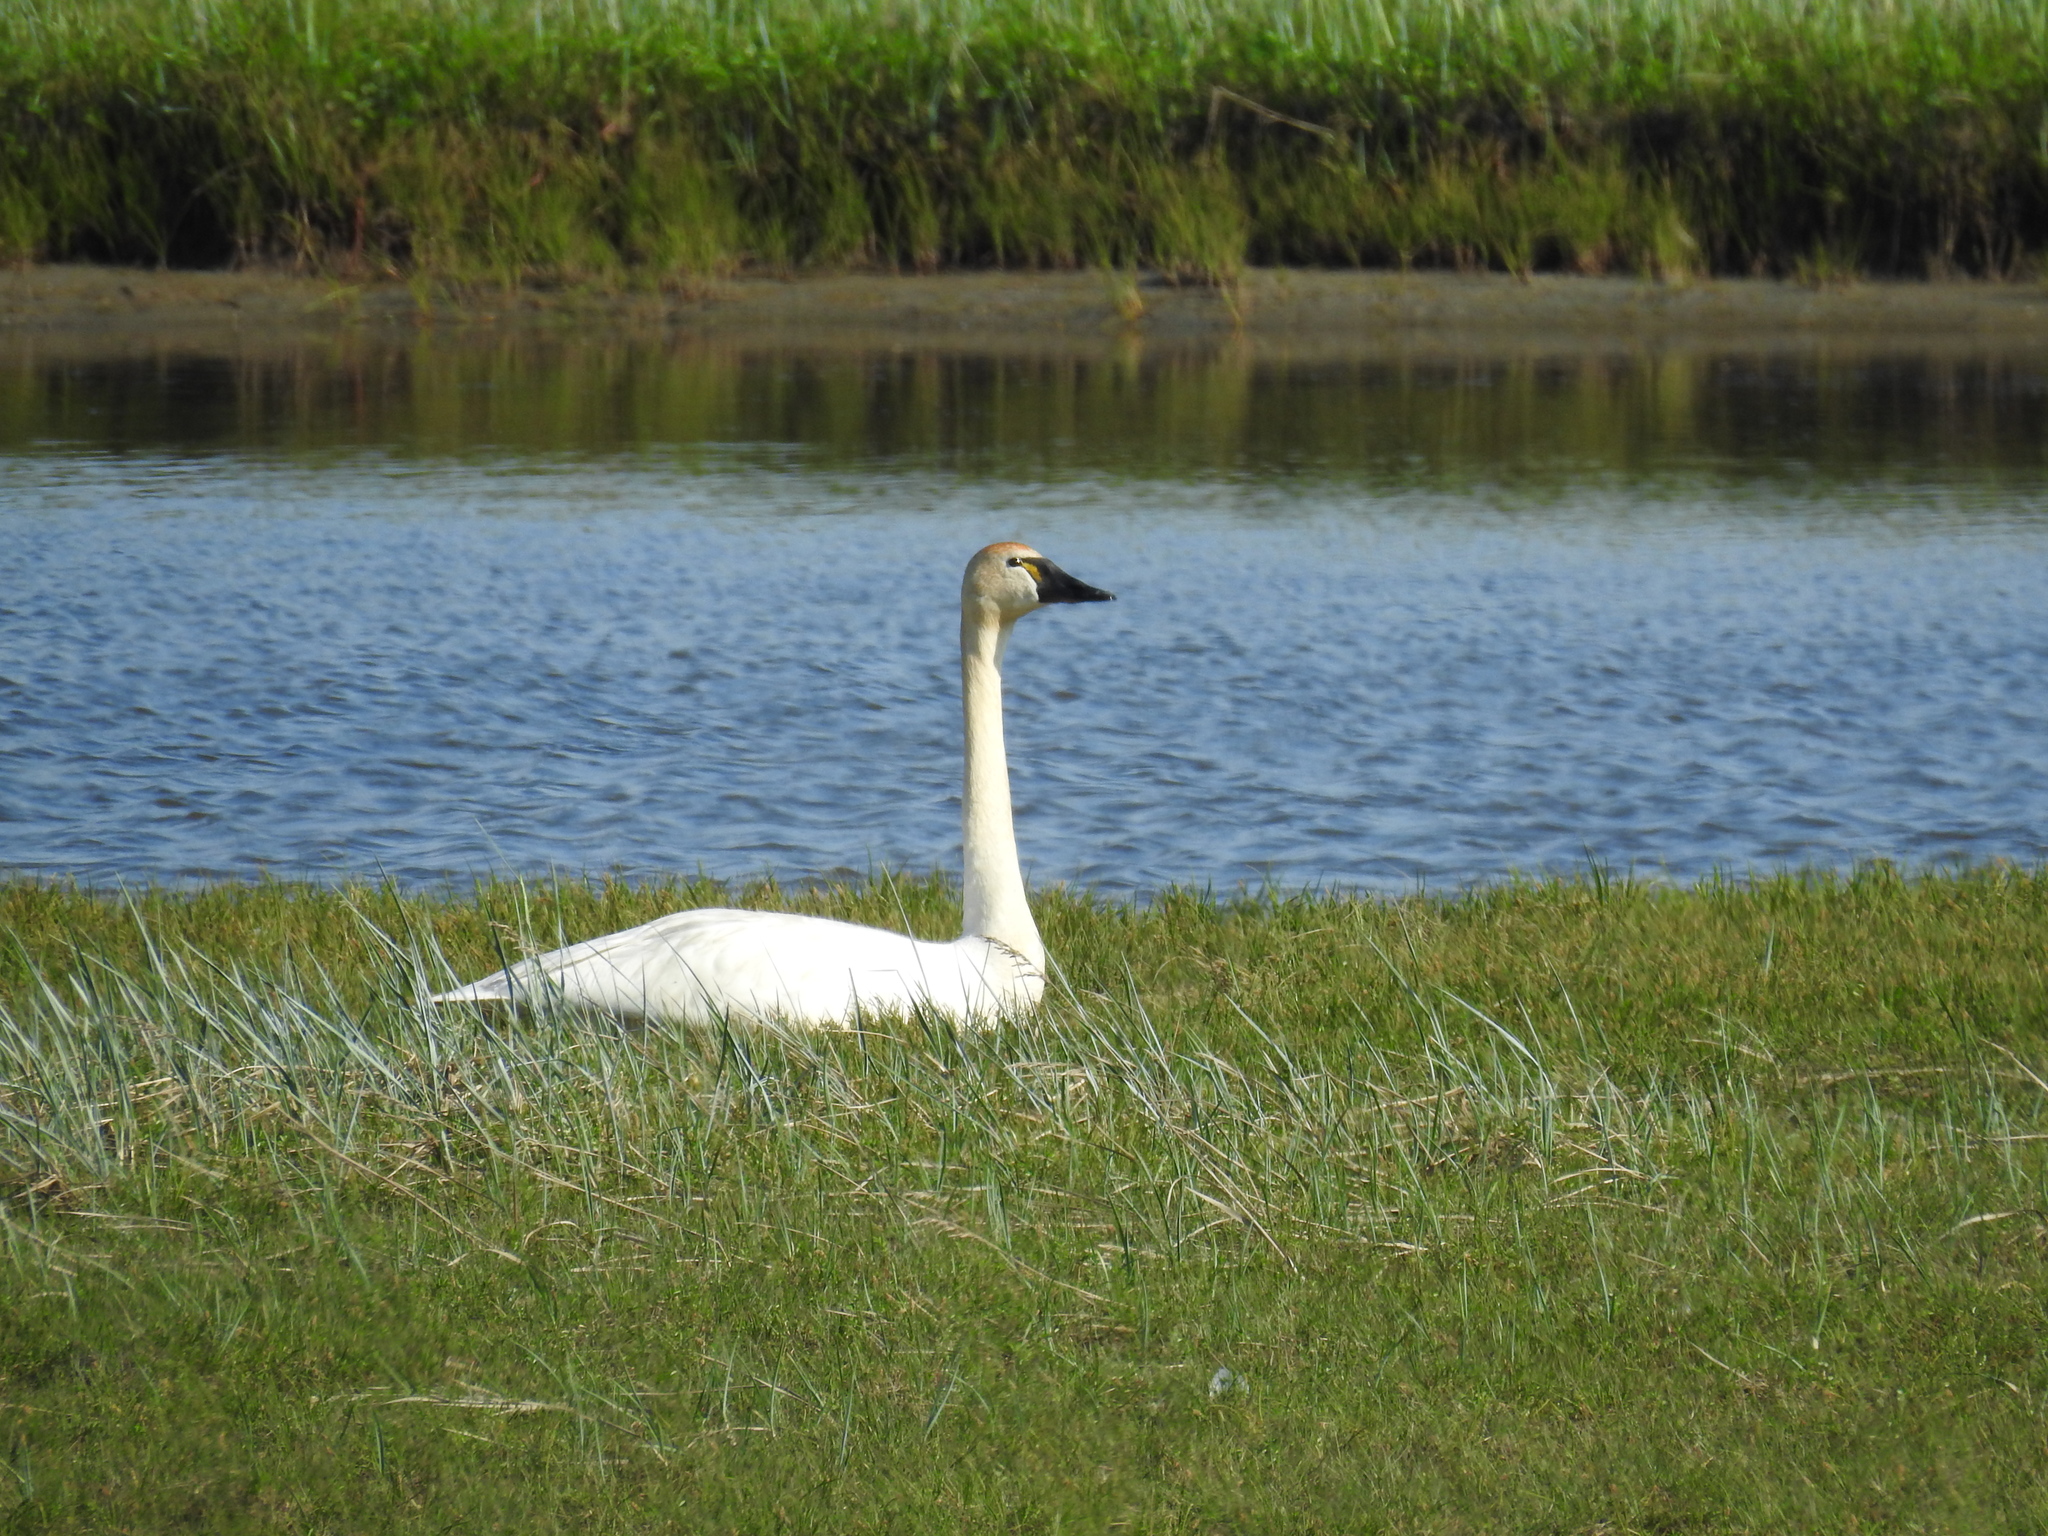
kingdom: Animalia
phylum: Chordata
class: Aves
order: Anseriformes
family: Anatidae
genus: Cygnus
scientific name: Cygnus columbianus
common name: Tundra swan
